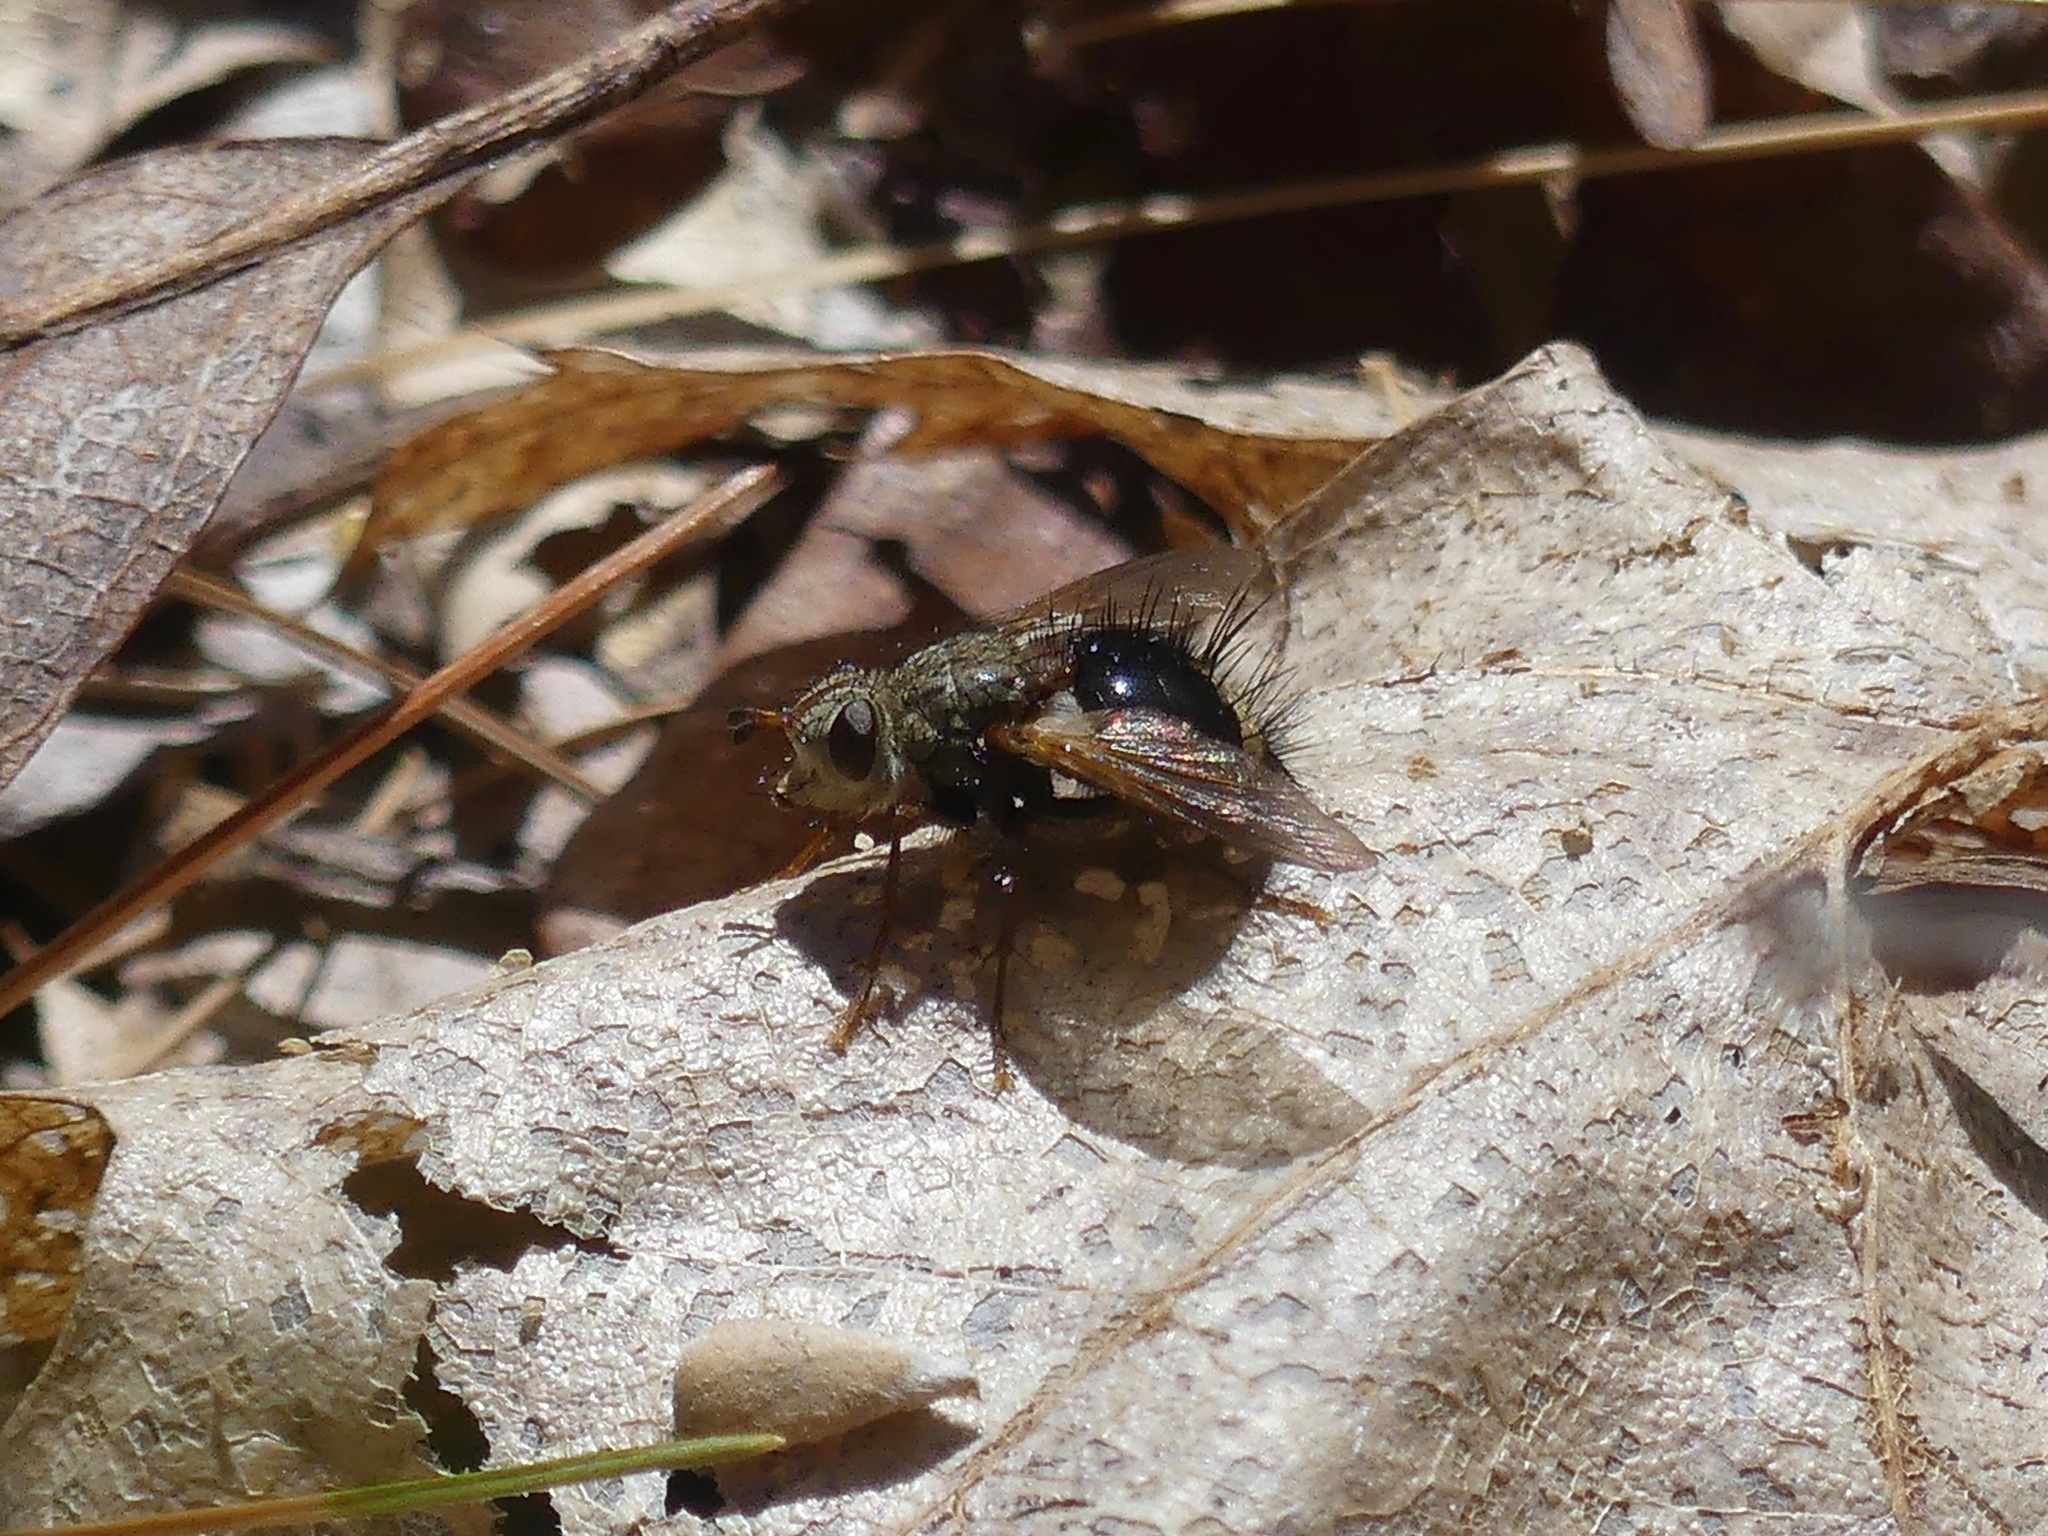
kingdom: Animalia
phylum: Arthropoda
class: Insecta
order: Diptera
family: Tachinidae
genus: Epalpus
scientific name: Epalpus signifer
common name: Early tachinid fly
